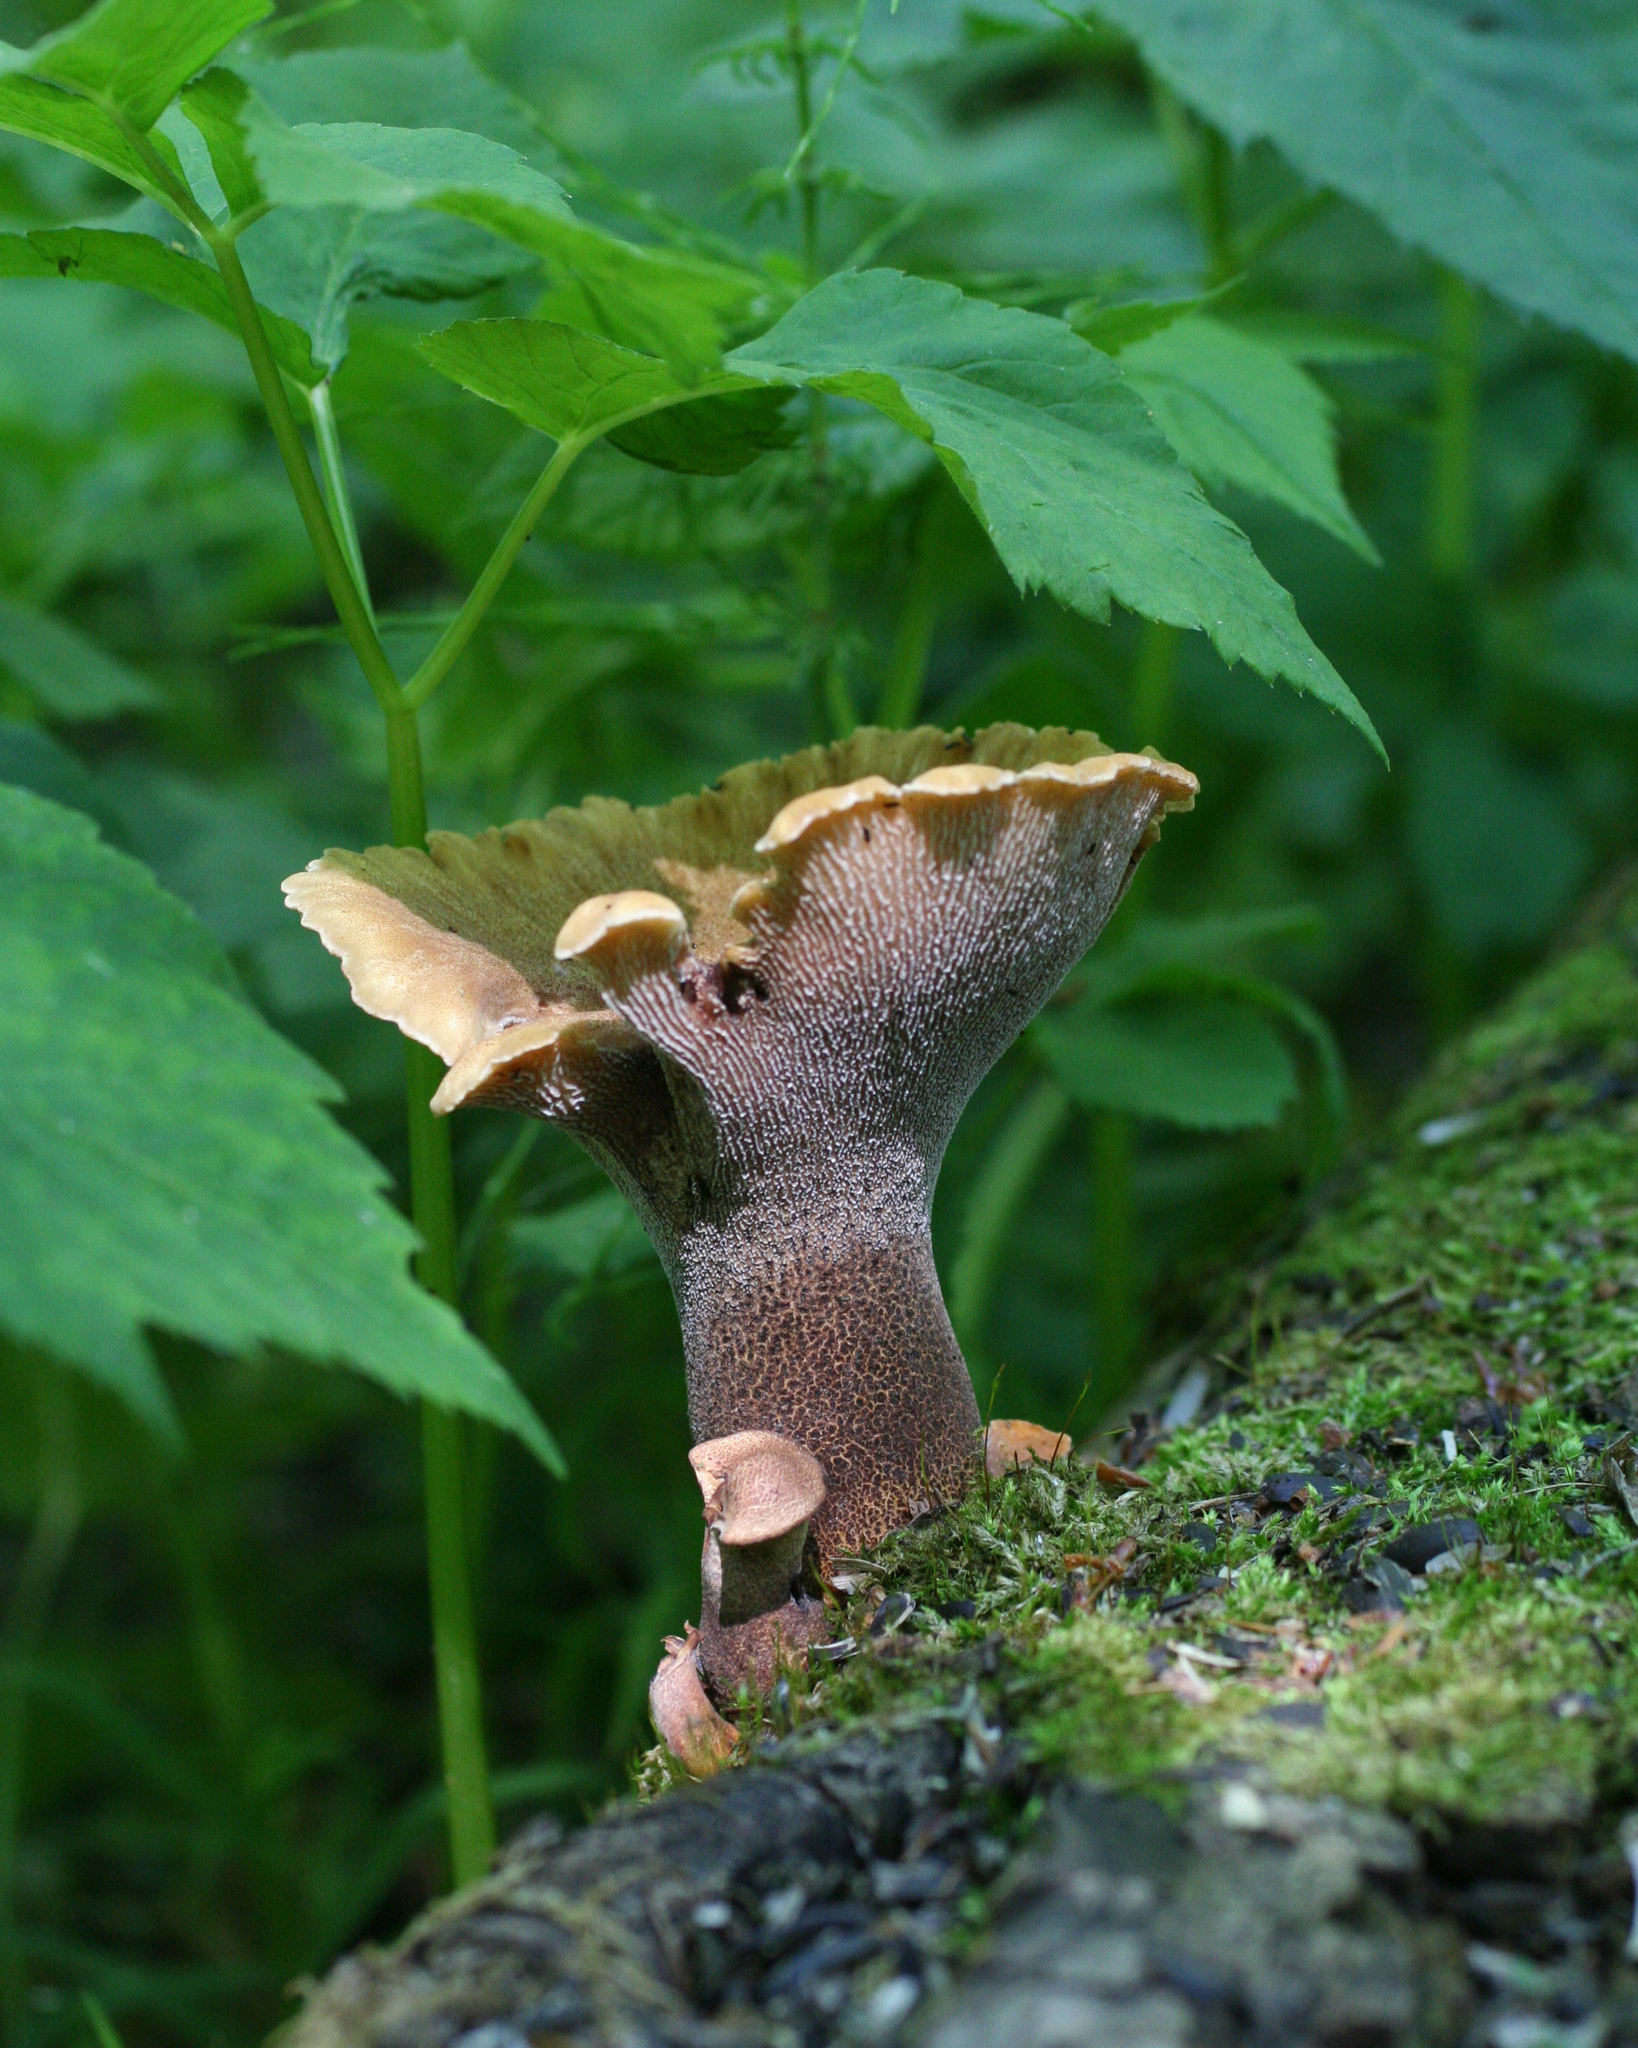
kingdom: Fungi
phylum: Basidiomycota
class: Agaricomycetes
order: Gloeophyllales
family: Gloeophyllaceae
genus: Neolentinus
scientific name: Neolentinus cyathiformis
